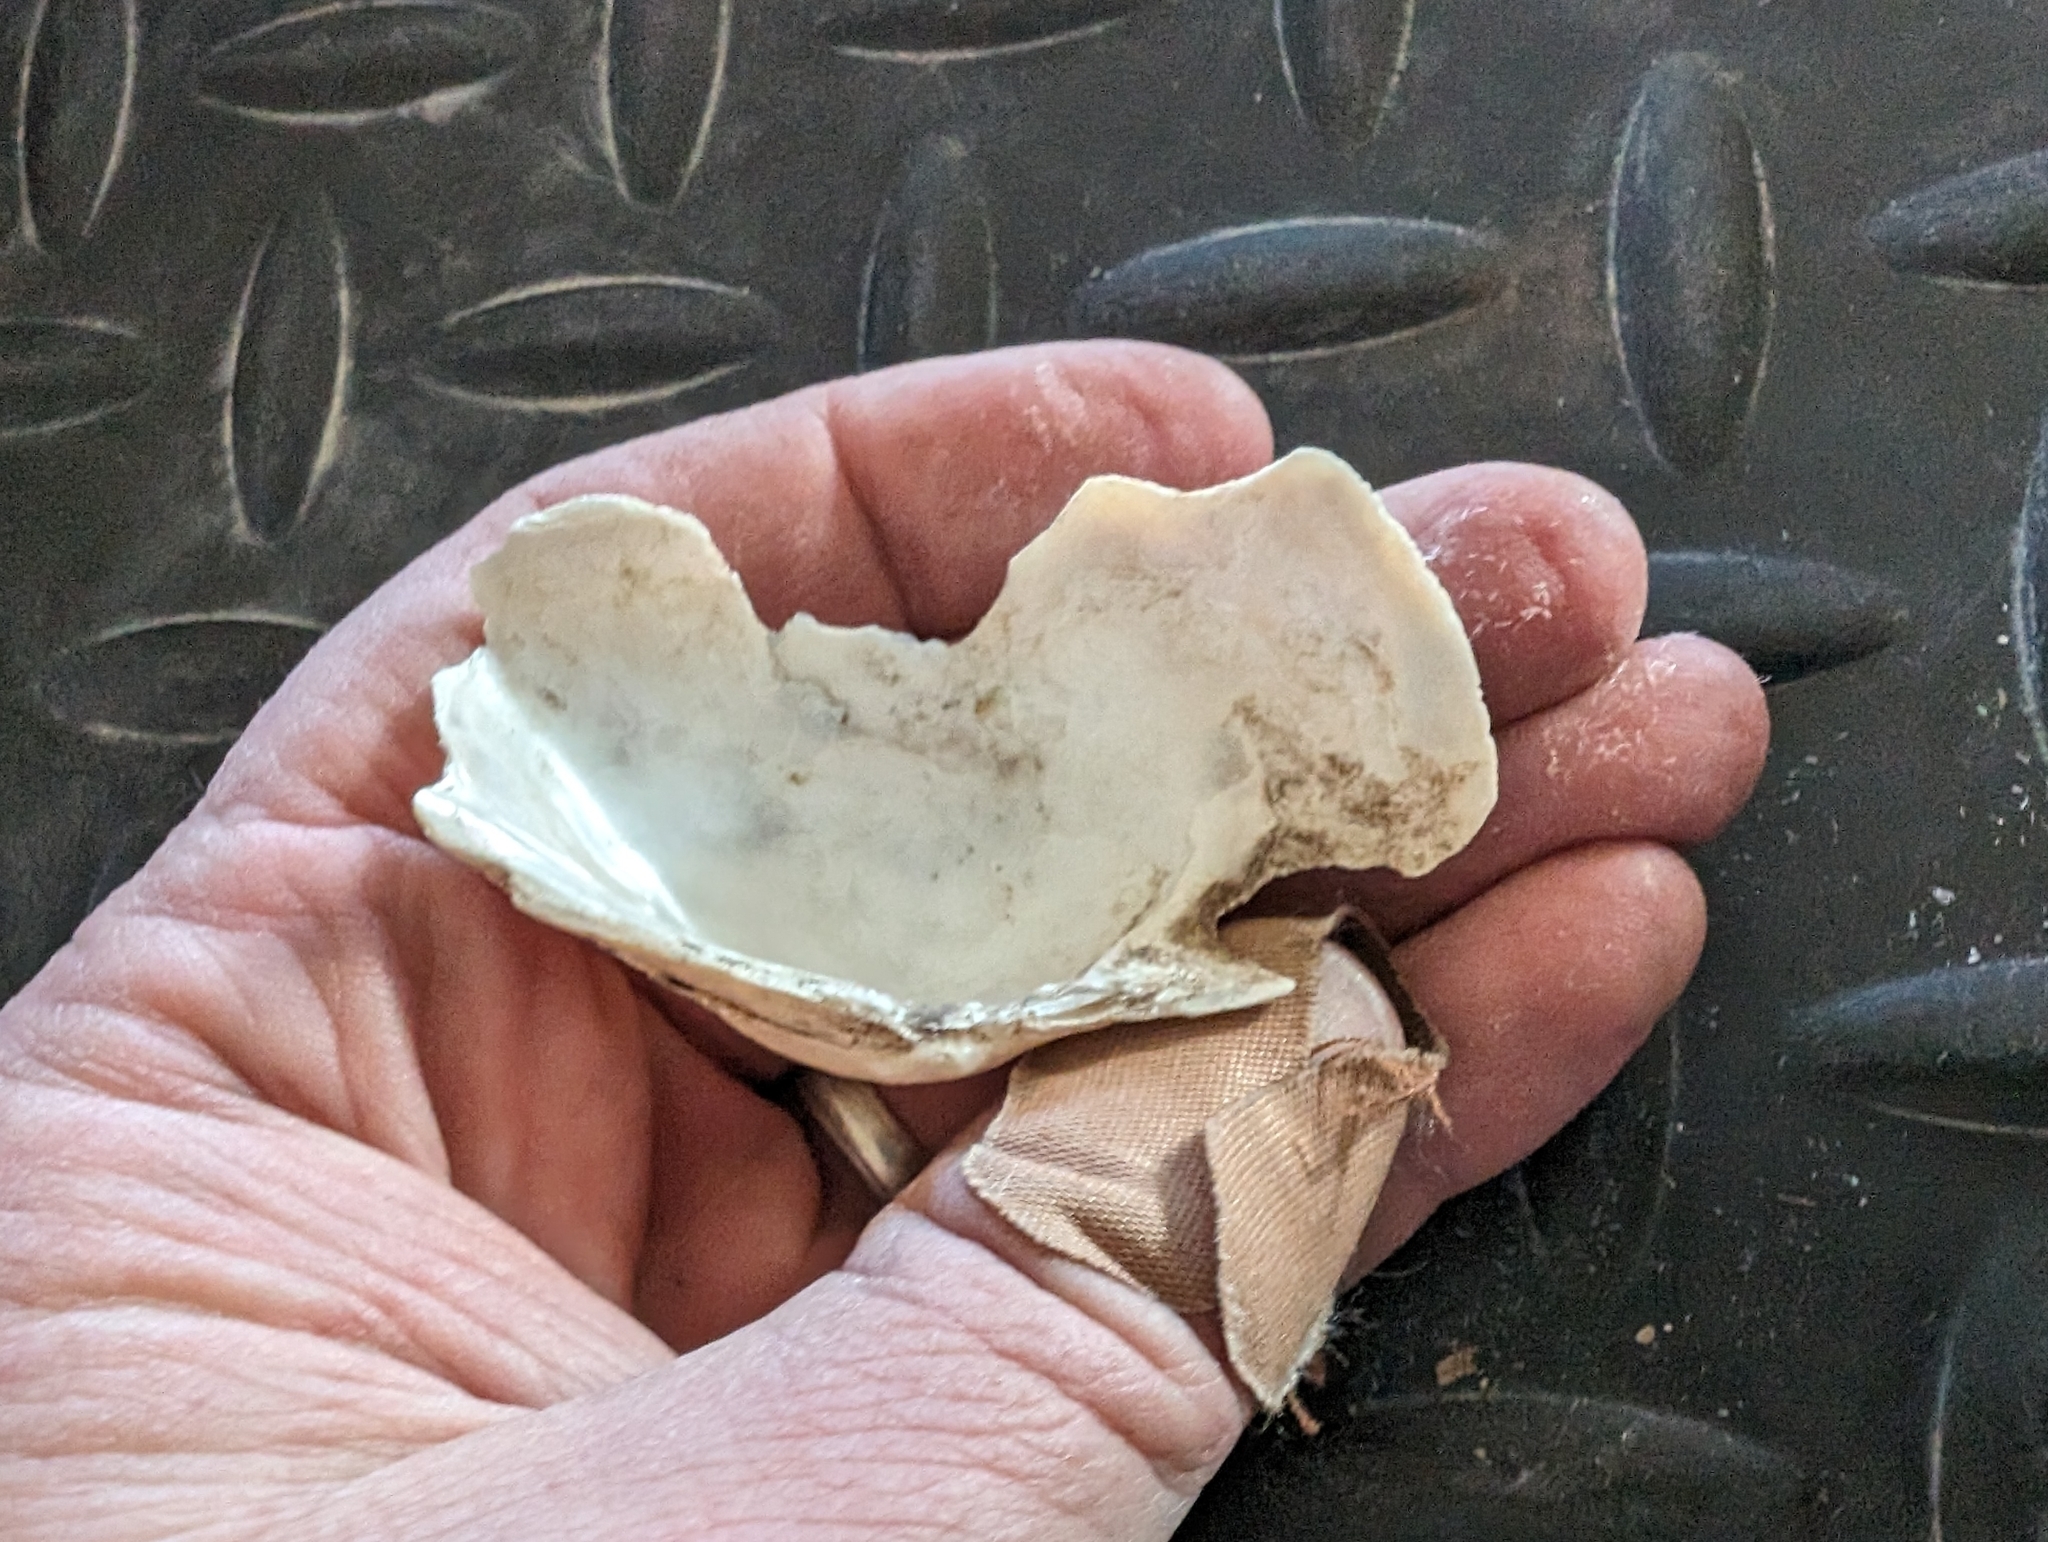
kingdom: Animalia
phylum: Mollusca
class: Bivalvia
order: Unionida
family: Unionidae
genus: Alasmidonta
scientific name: Alasmidonta marginata
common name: Elktoe
